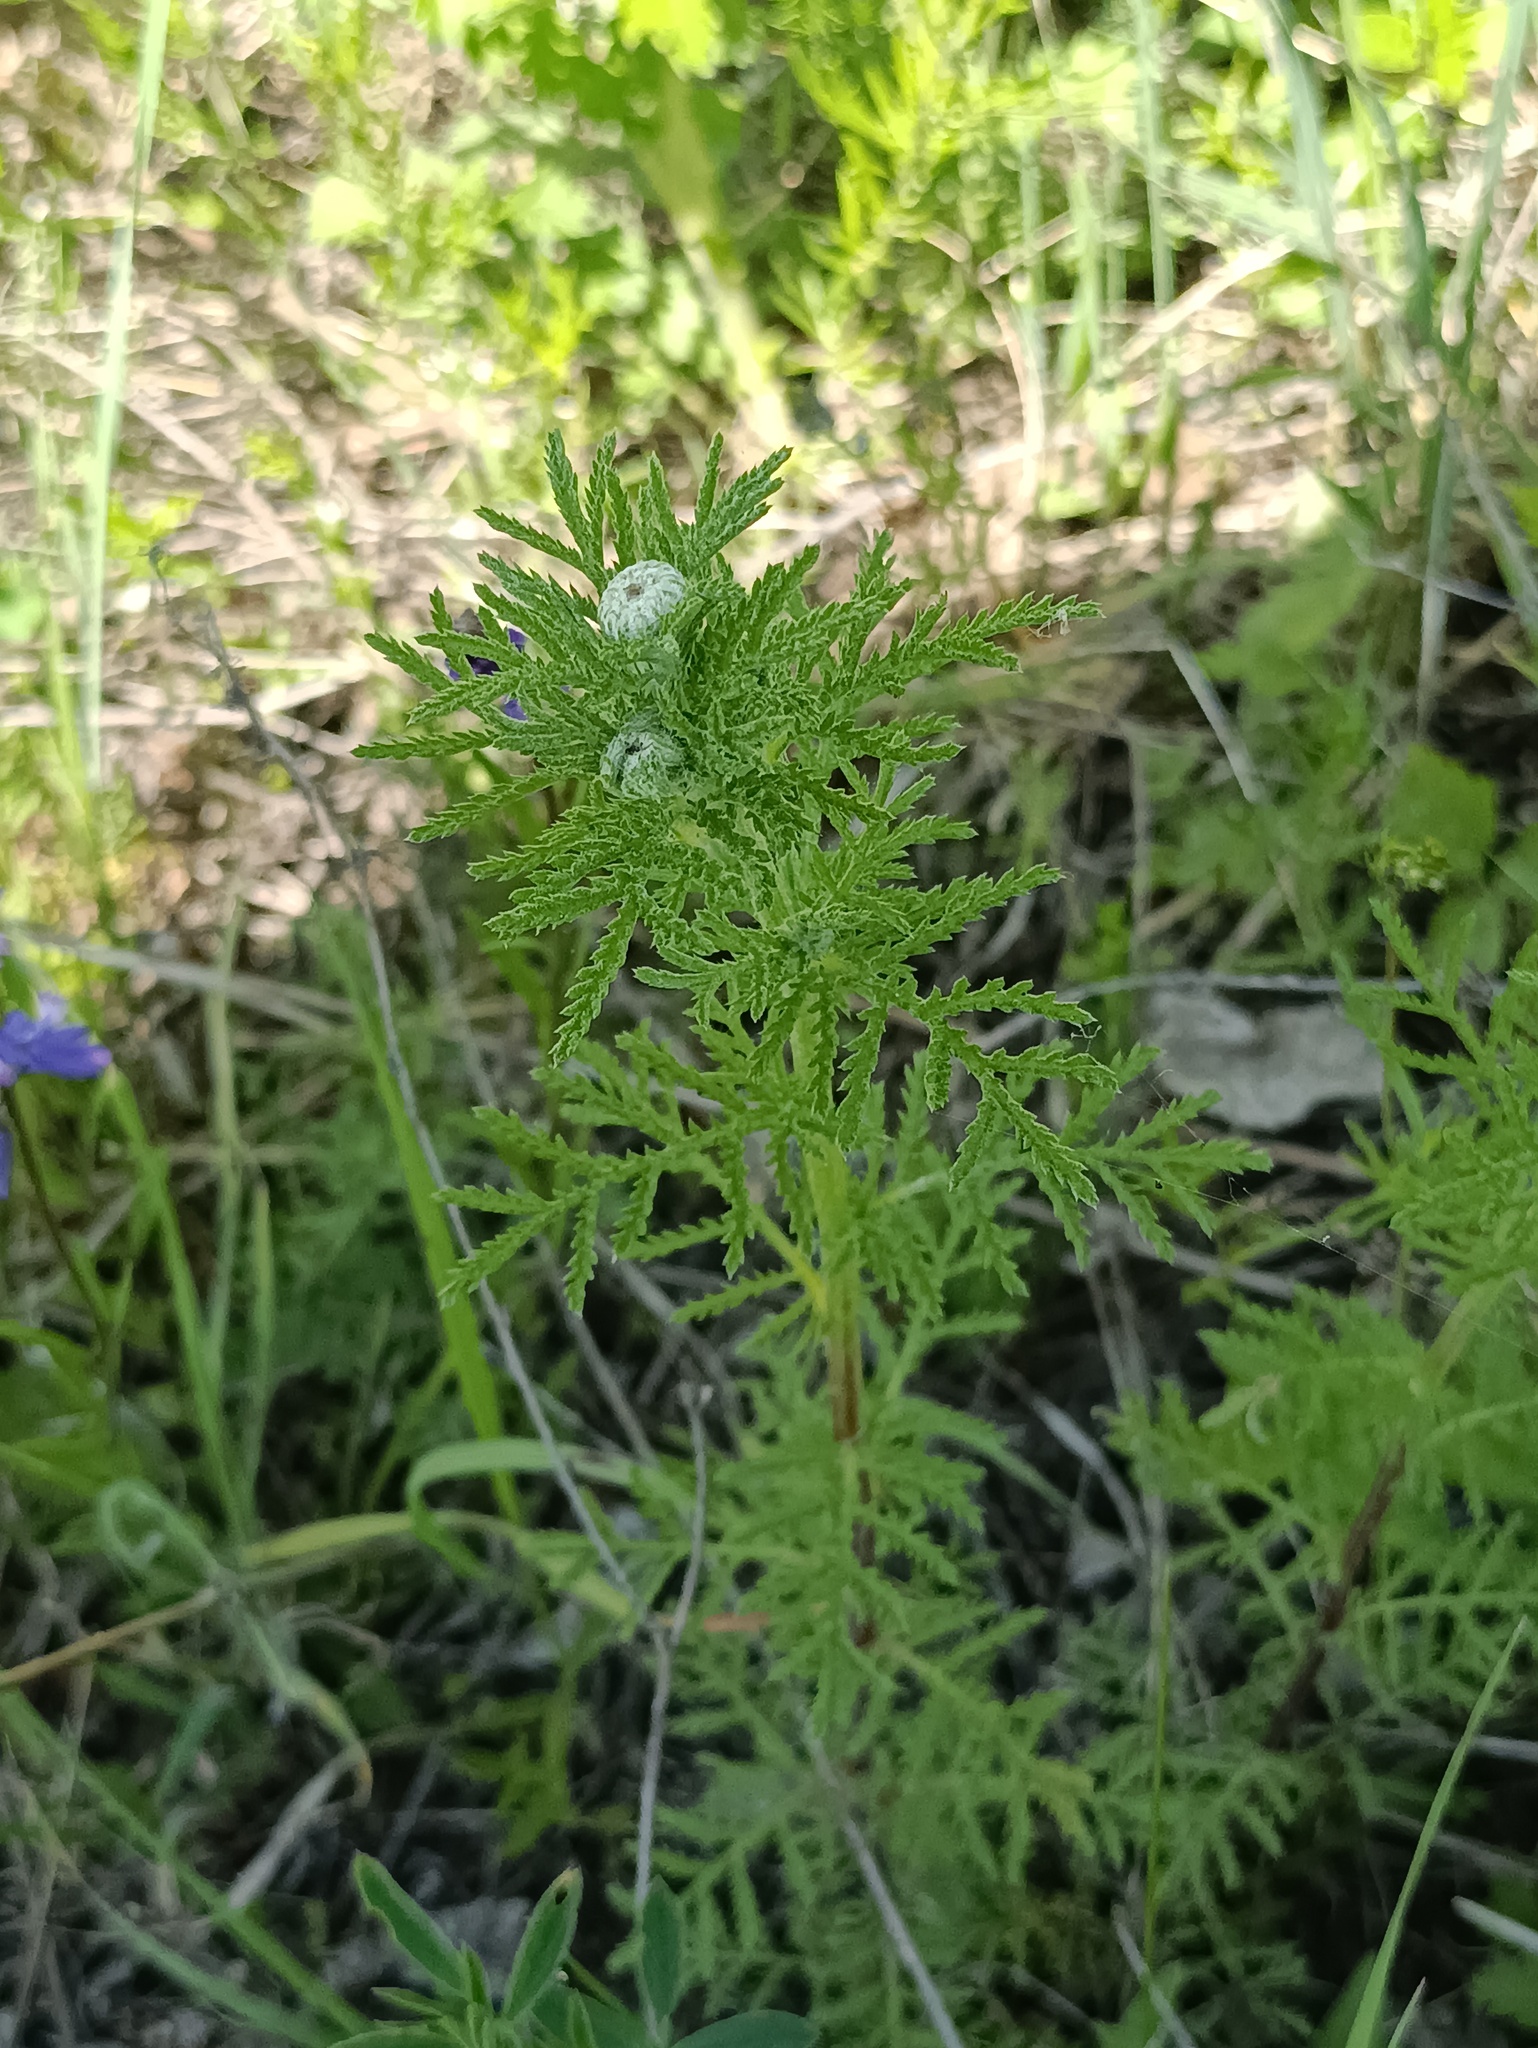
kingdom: Plantae
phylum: Tracheophyta
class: Magnoliopsida
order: Asterales
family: Asteraceae
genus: Cota
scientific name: Cota tinctoria
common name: Golden chamomile
